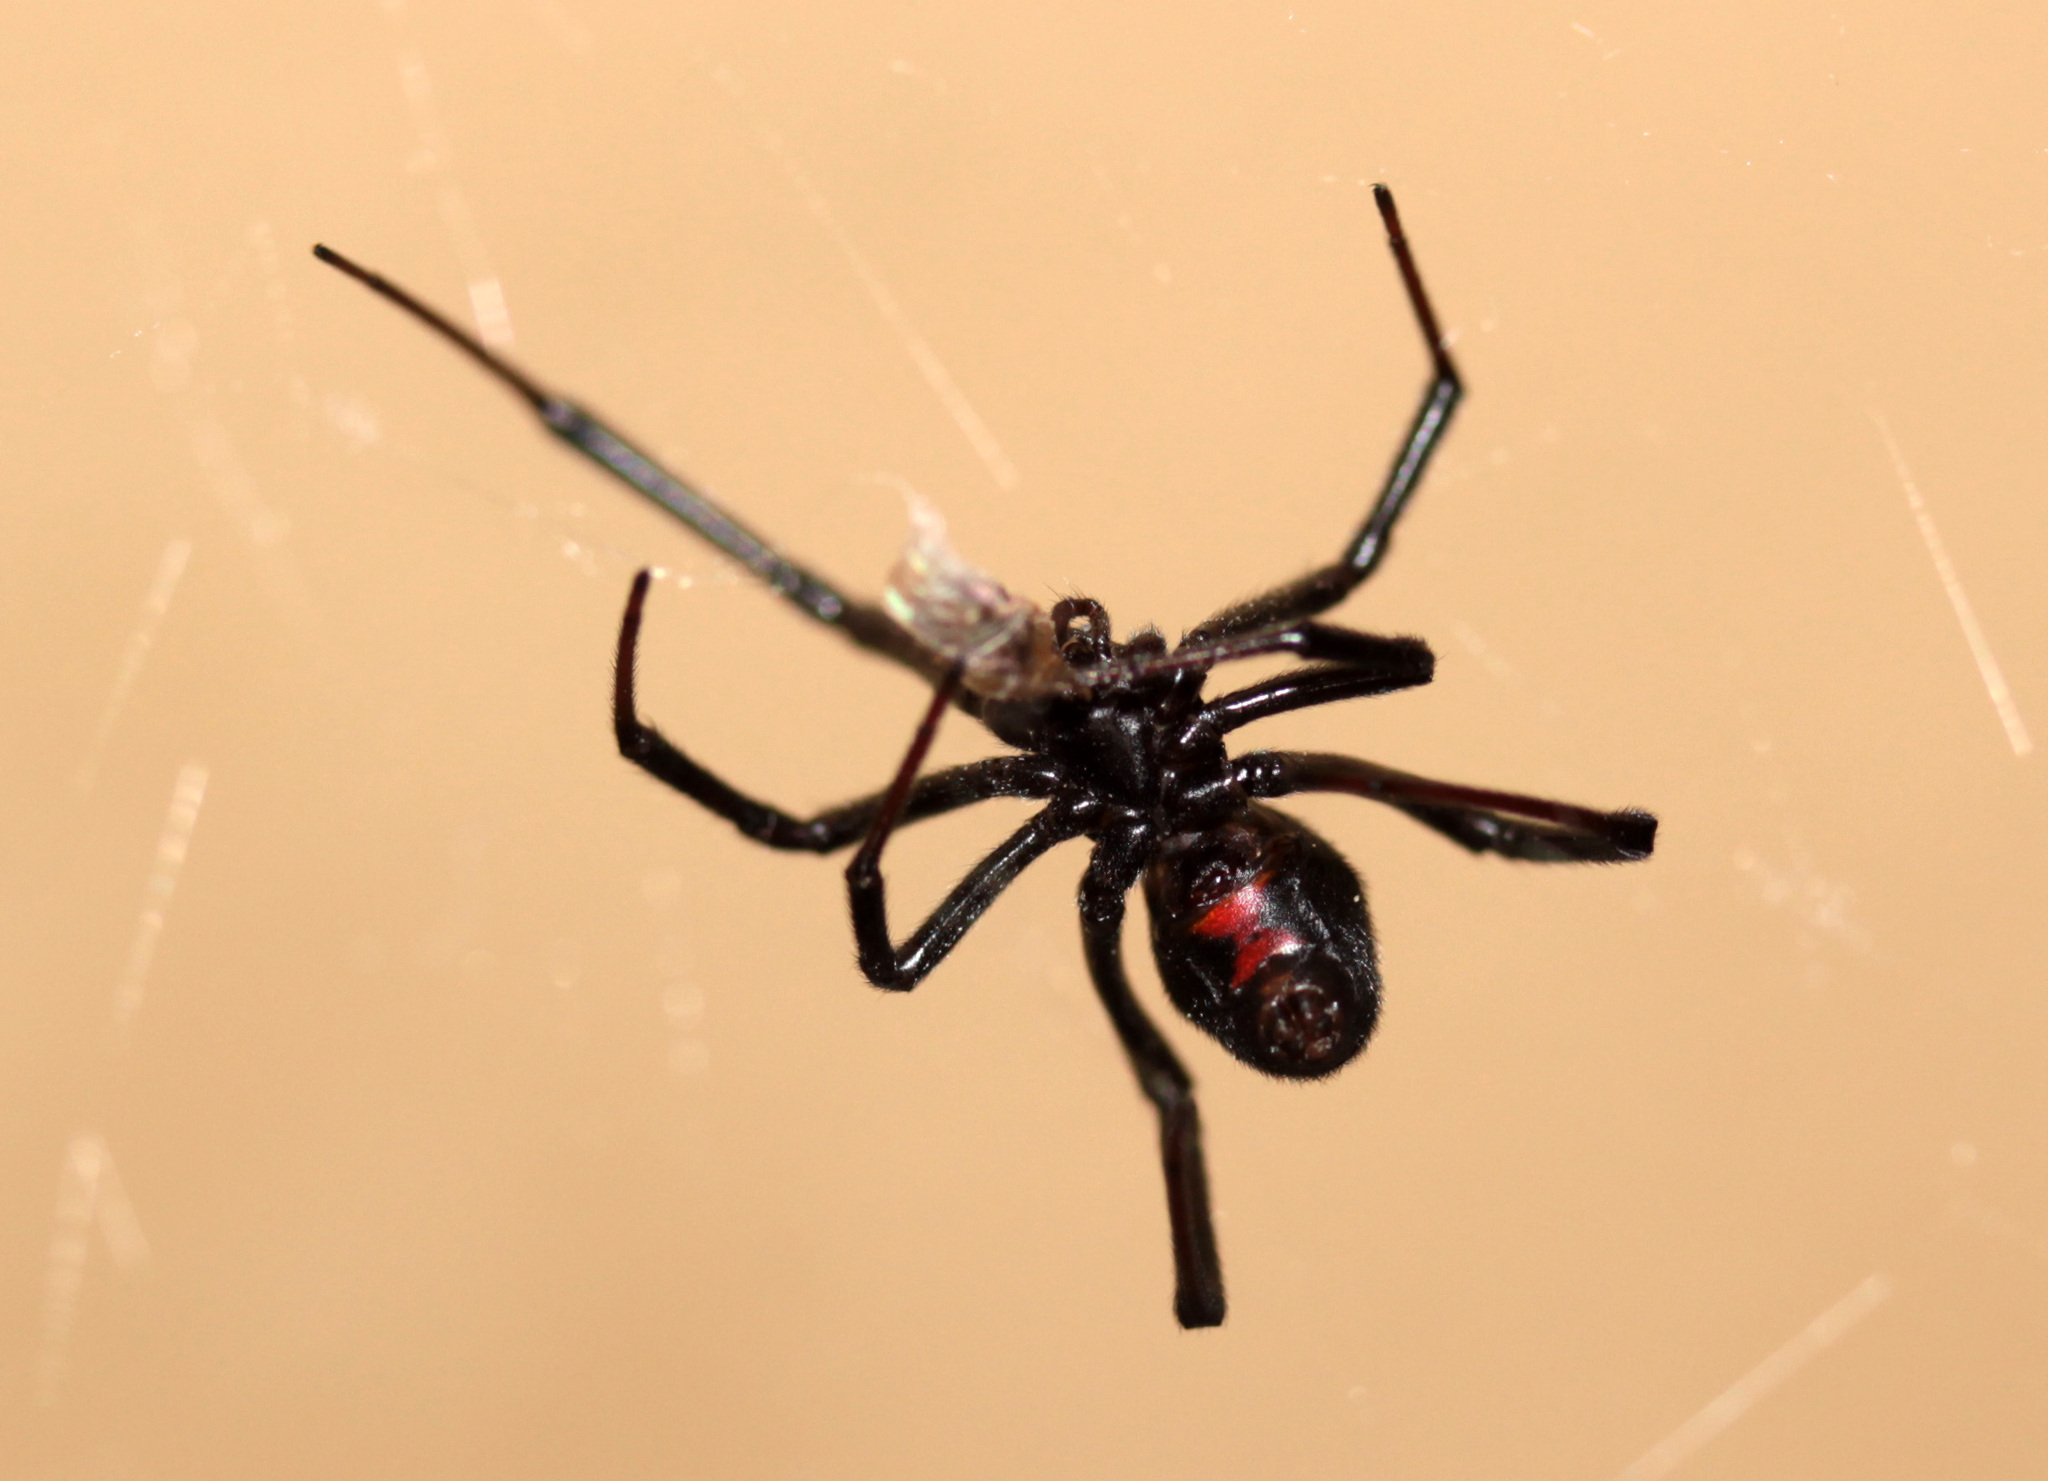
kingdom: Animalia
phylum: Arthropoda
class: Arachnida
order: Araneae
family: Theridiidae
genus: Latrodectus
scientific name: Latrodectus hesperus
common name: Western black widow
